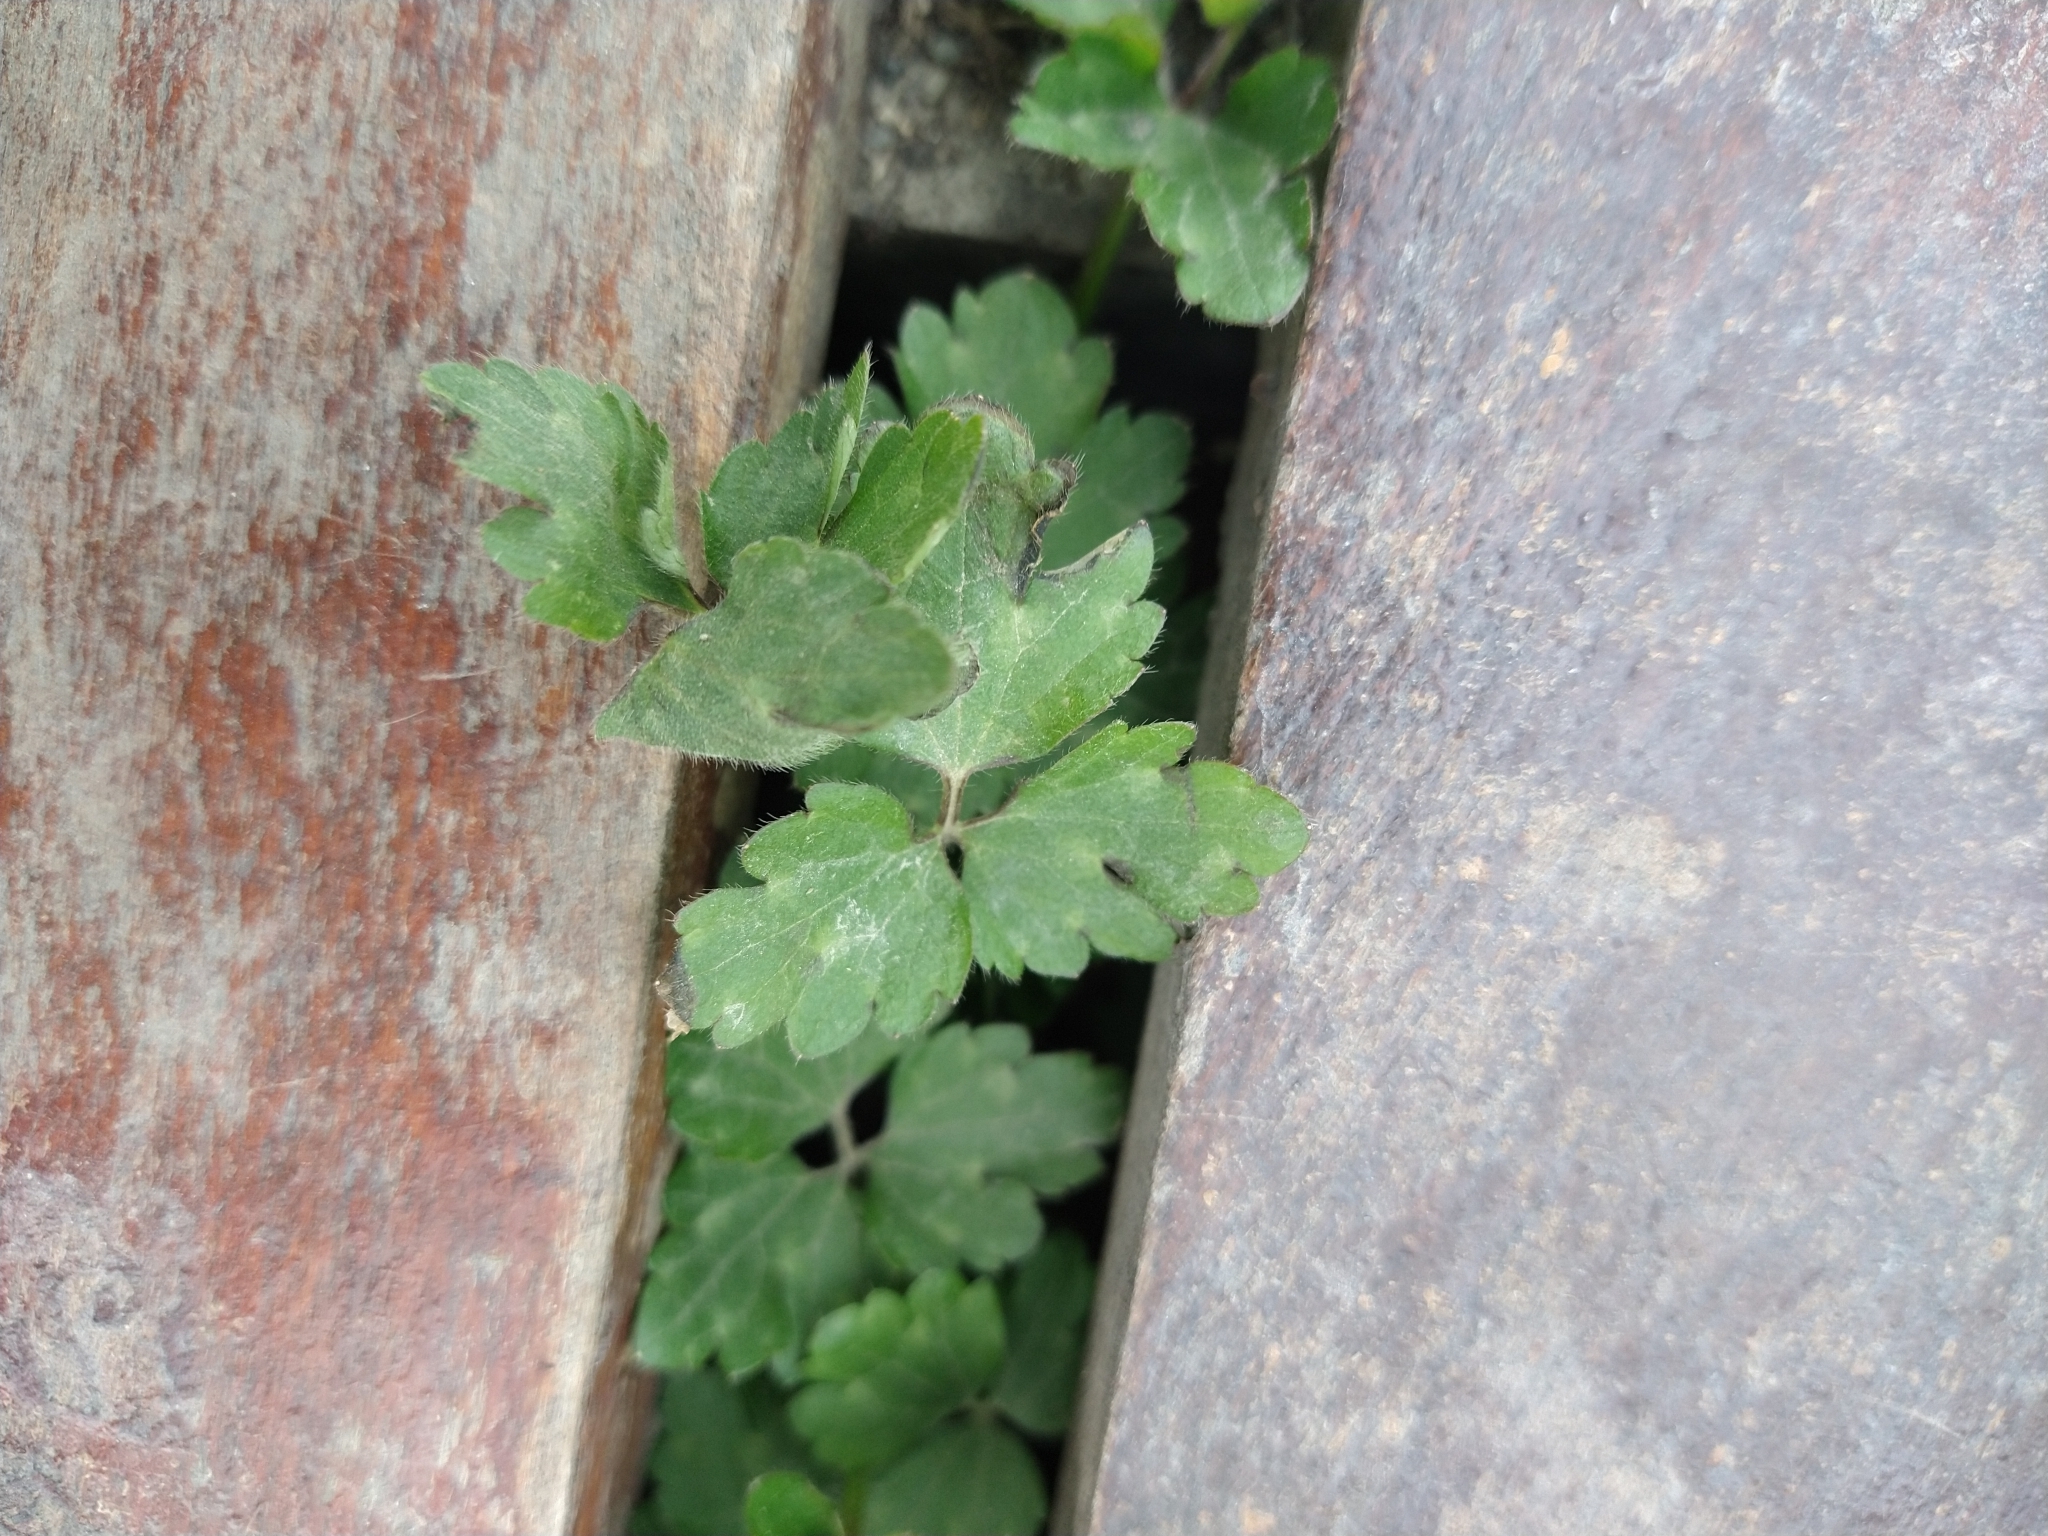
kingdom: Plantae
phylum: Tracheophyta
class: Magnoliopsida
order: Ranunculales
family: Ranunculaceae
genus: Ranunculus
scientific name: Ranunculus repens
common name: Creeping buttercup
